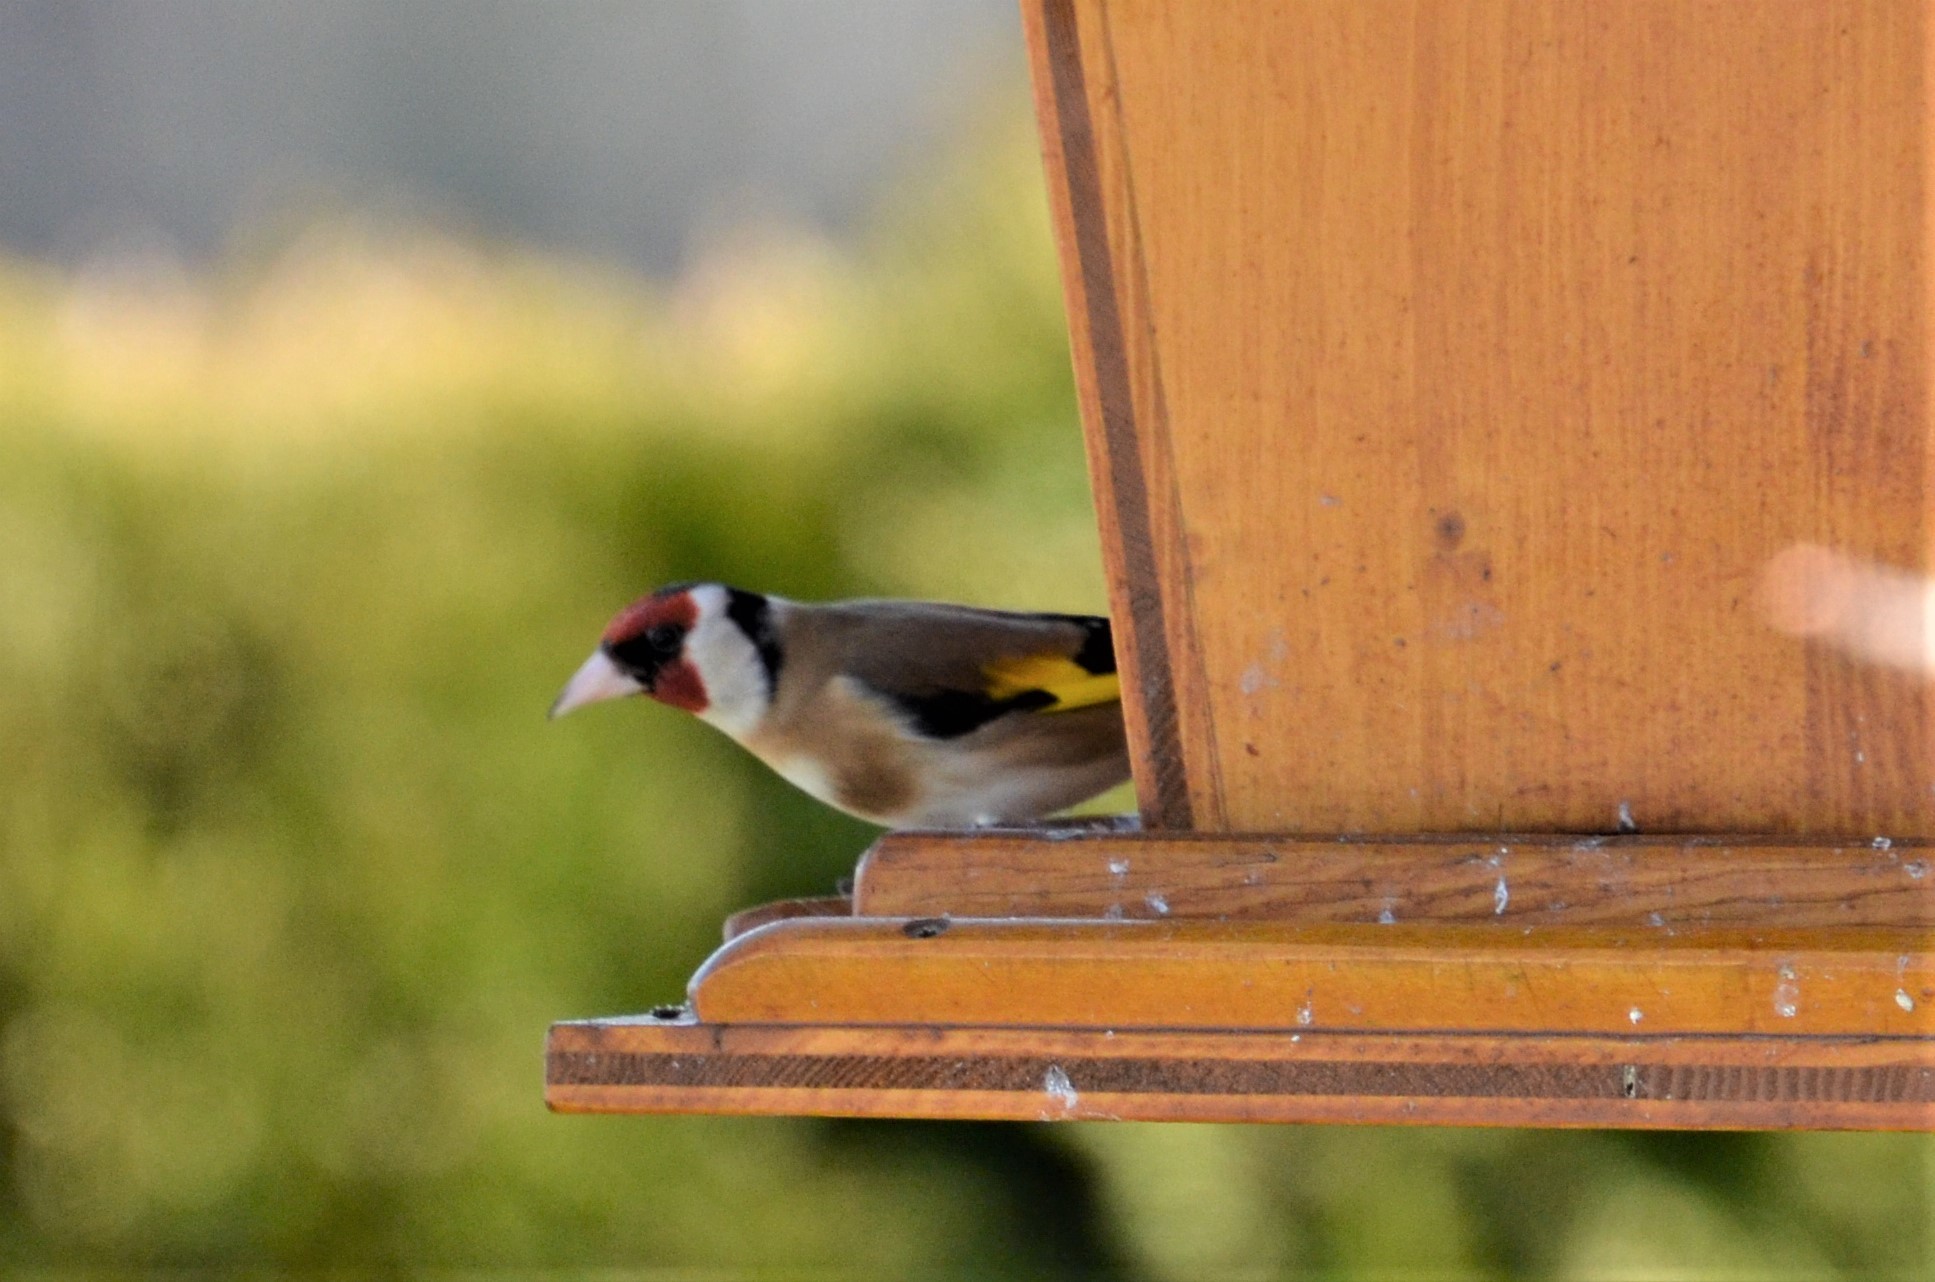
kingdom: Animalia
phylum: Chordata
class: Aves
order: Passeriformes
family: Fringillidae
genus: Carduelis
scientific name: Carduelis carduelis
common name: European goldfinch
